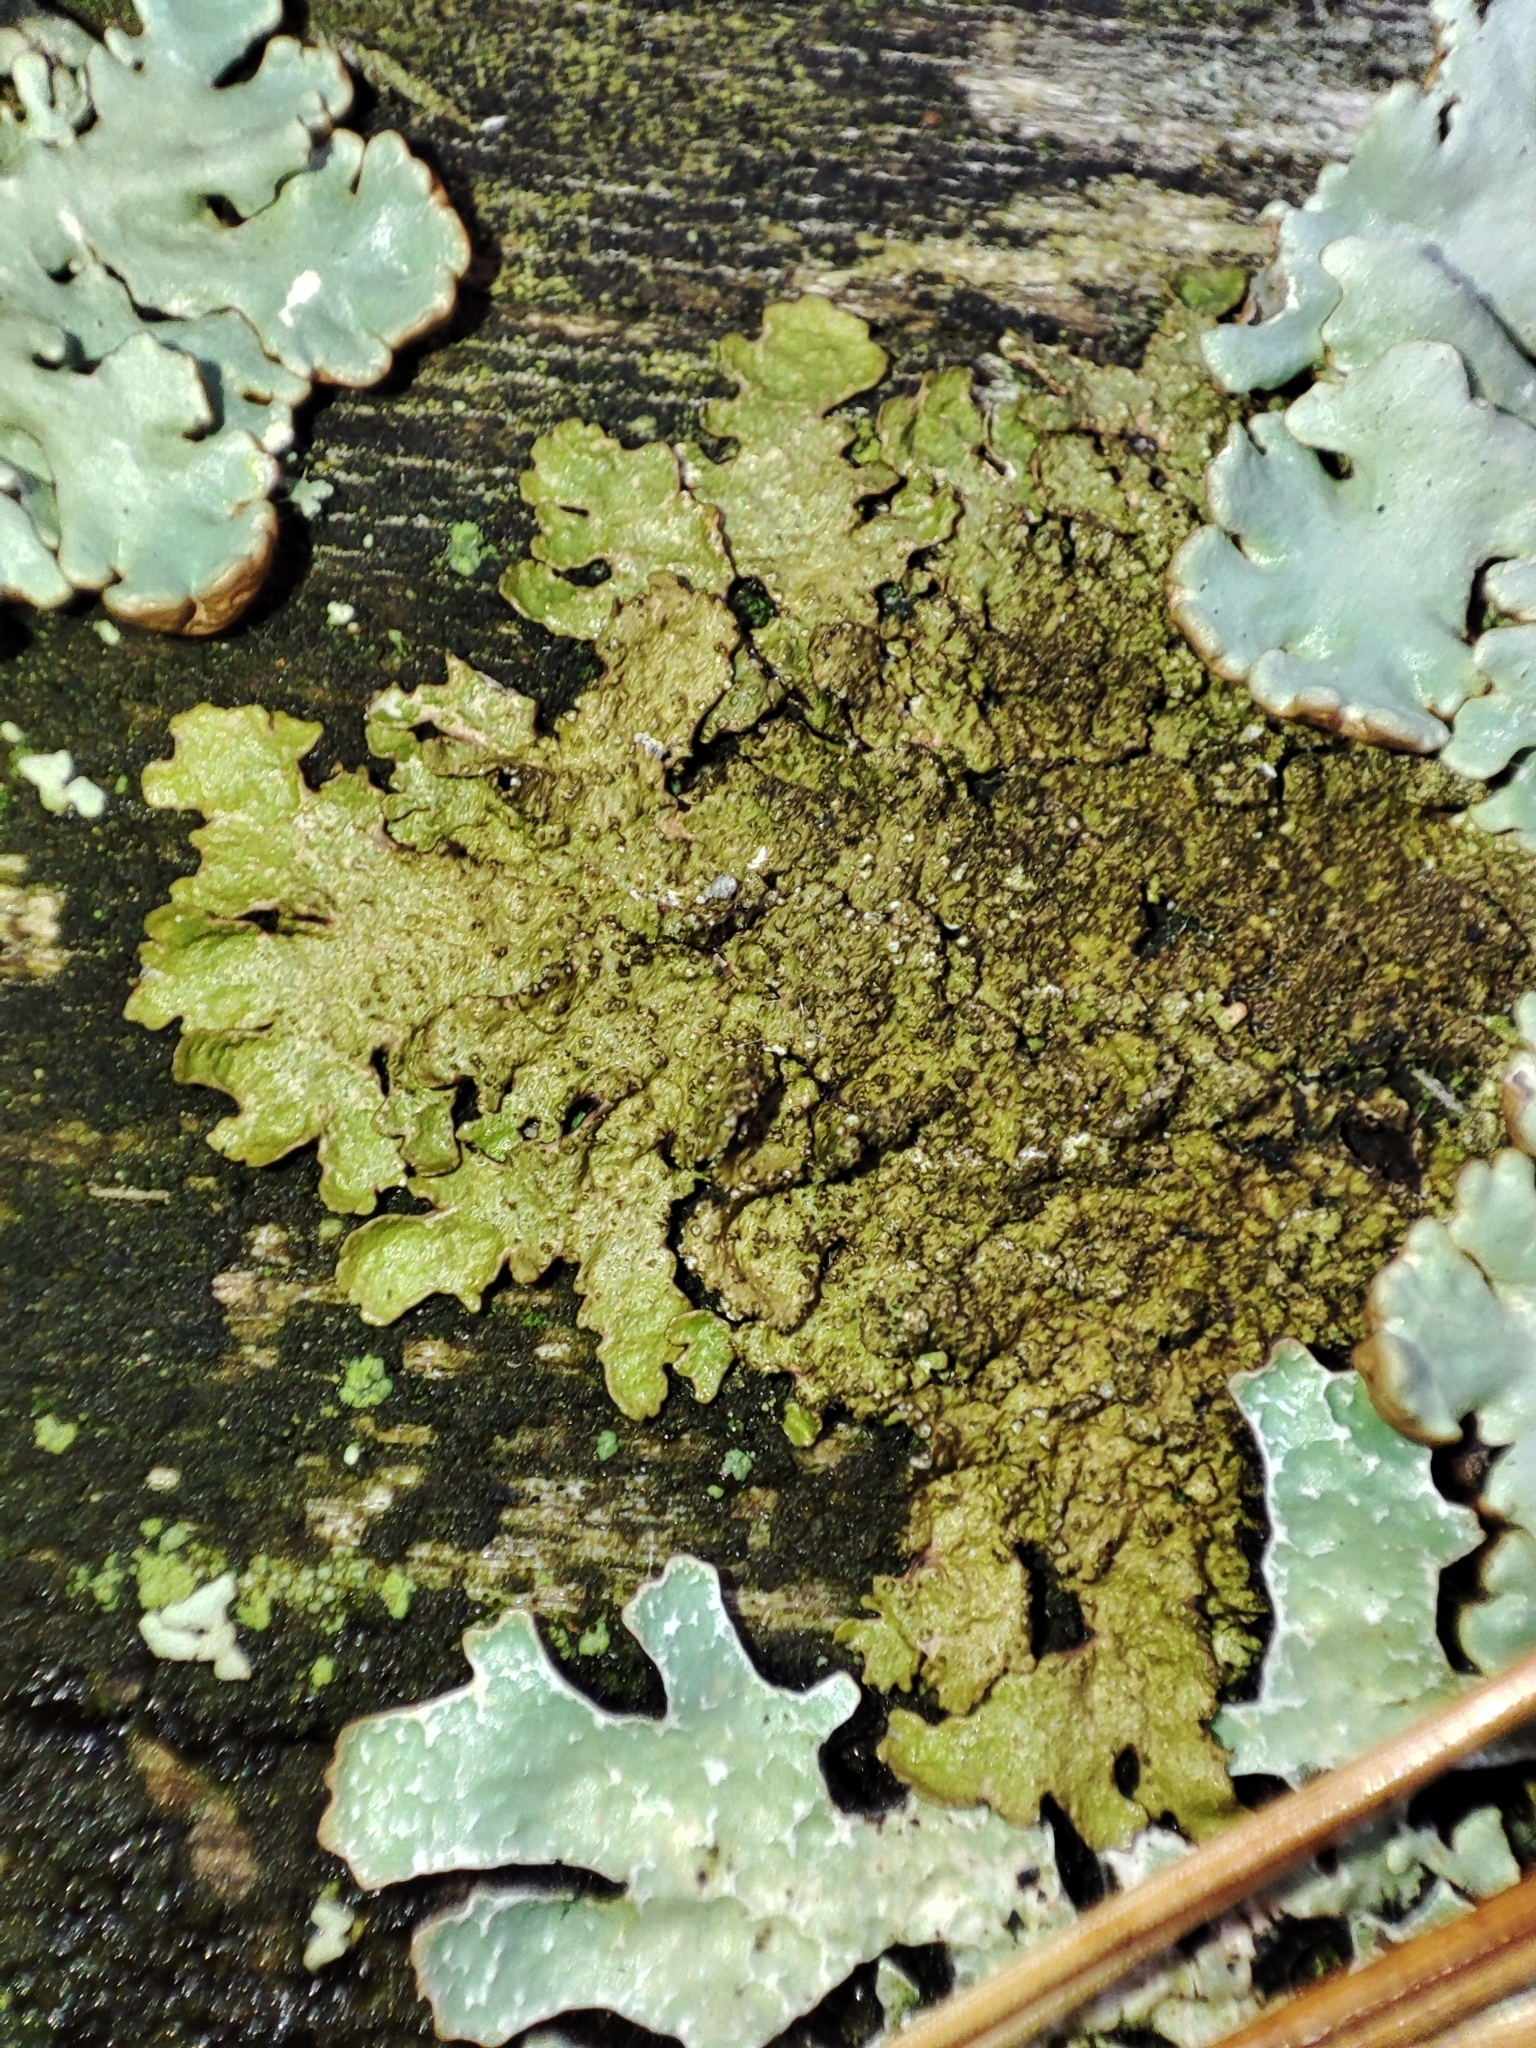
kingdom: Fungi
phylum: Ascomycota
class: Lecanoromycetes
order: Lecanorales
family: Parmeliaceae
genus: Melanelixia
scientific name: Melanelixia subaurifera
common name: Abraded camouflage lichen
